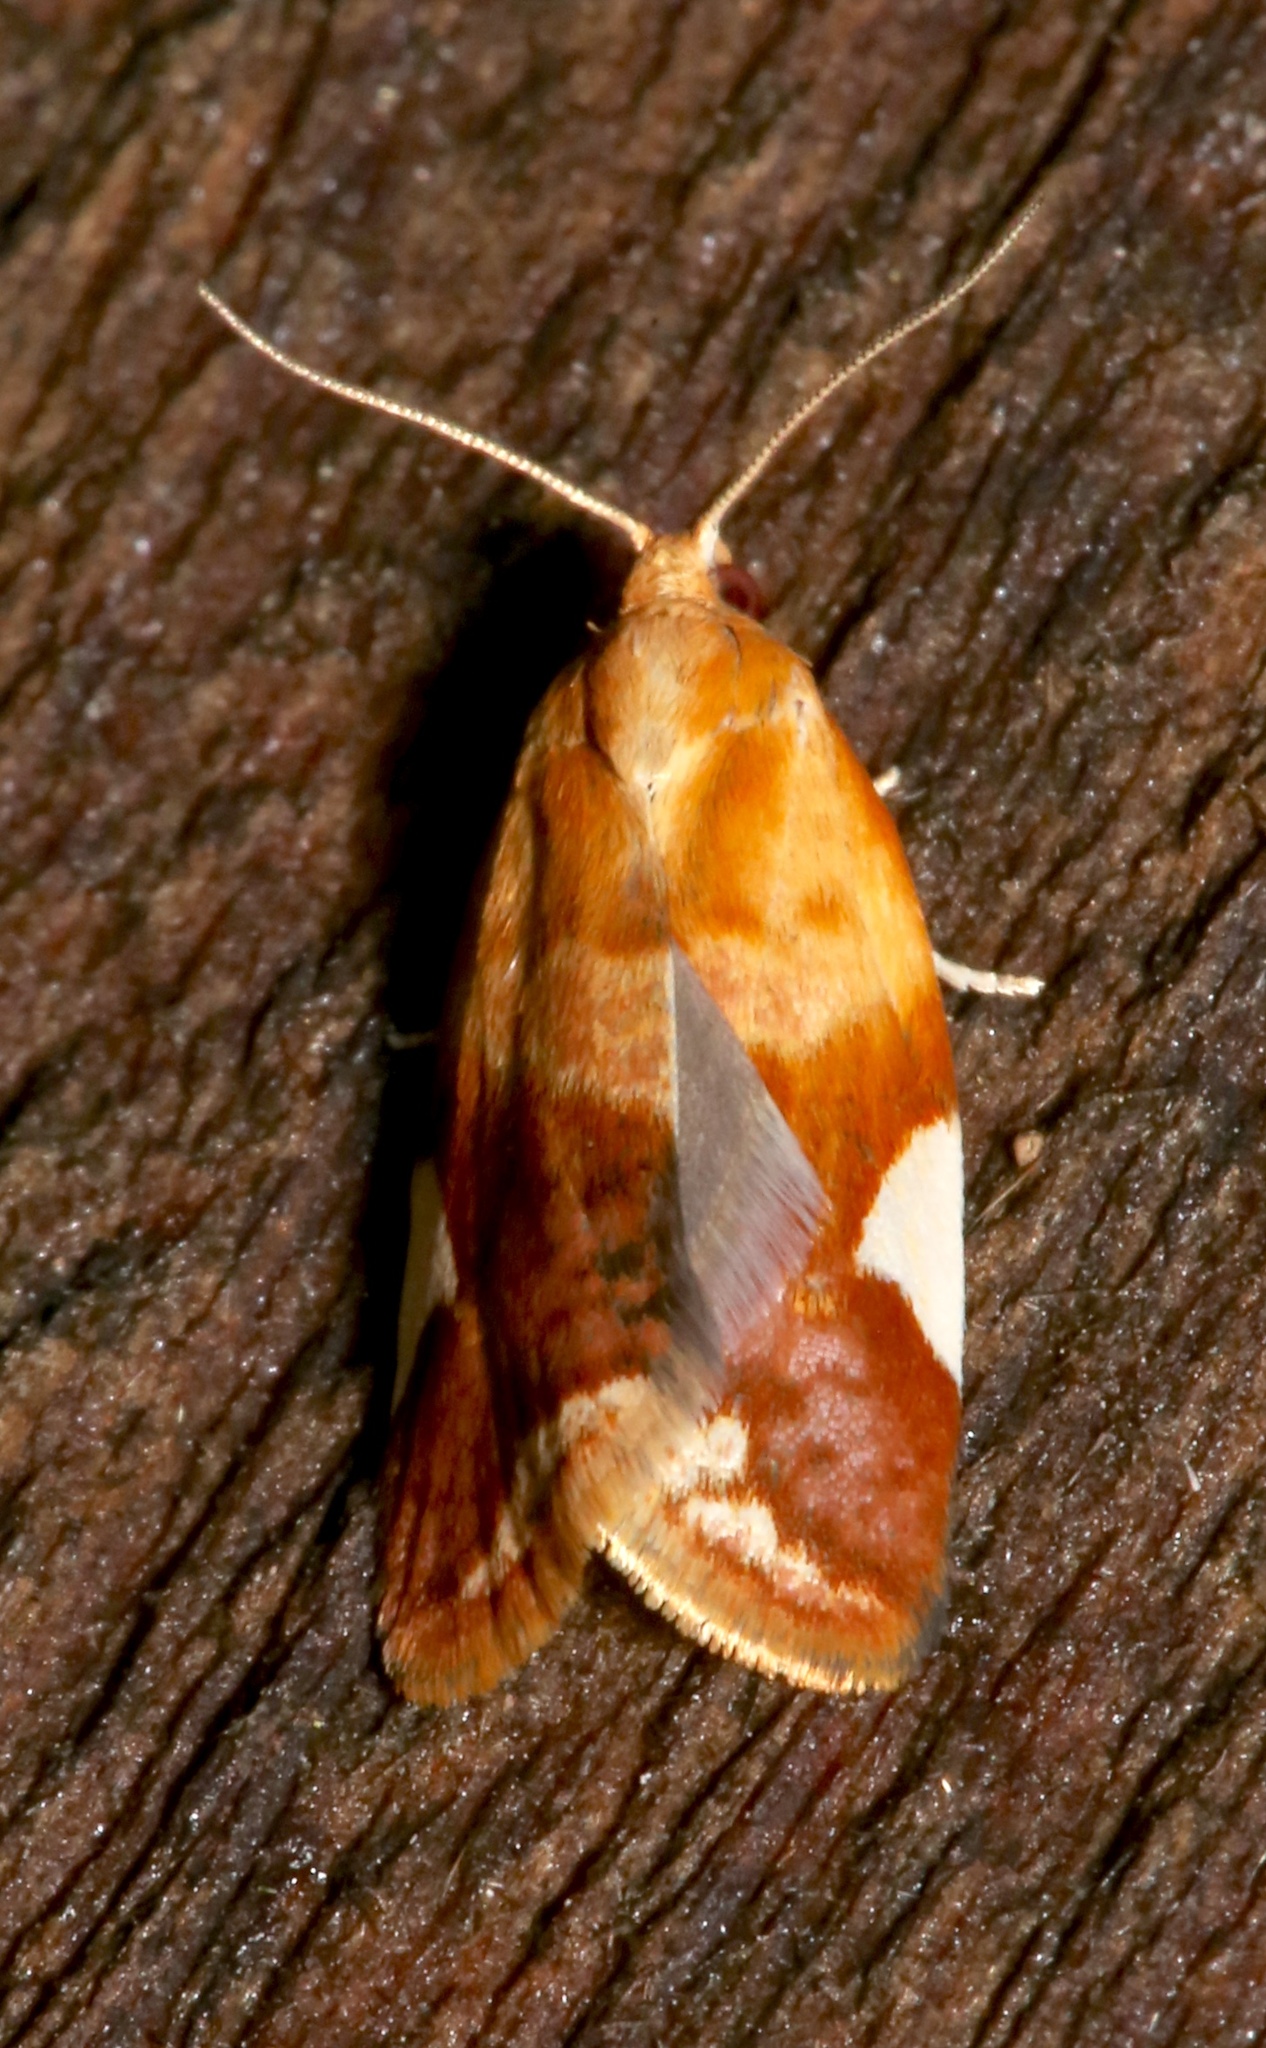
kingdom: Animalia
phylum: Arthropoda
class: Insecta
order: Lepidoptera
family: Tortricidae
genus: Clepsis
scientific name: Clepsis persicana
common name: White triangle tortrix
